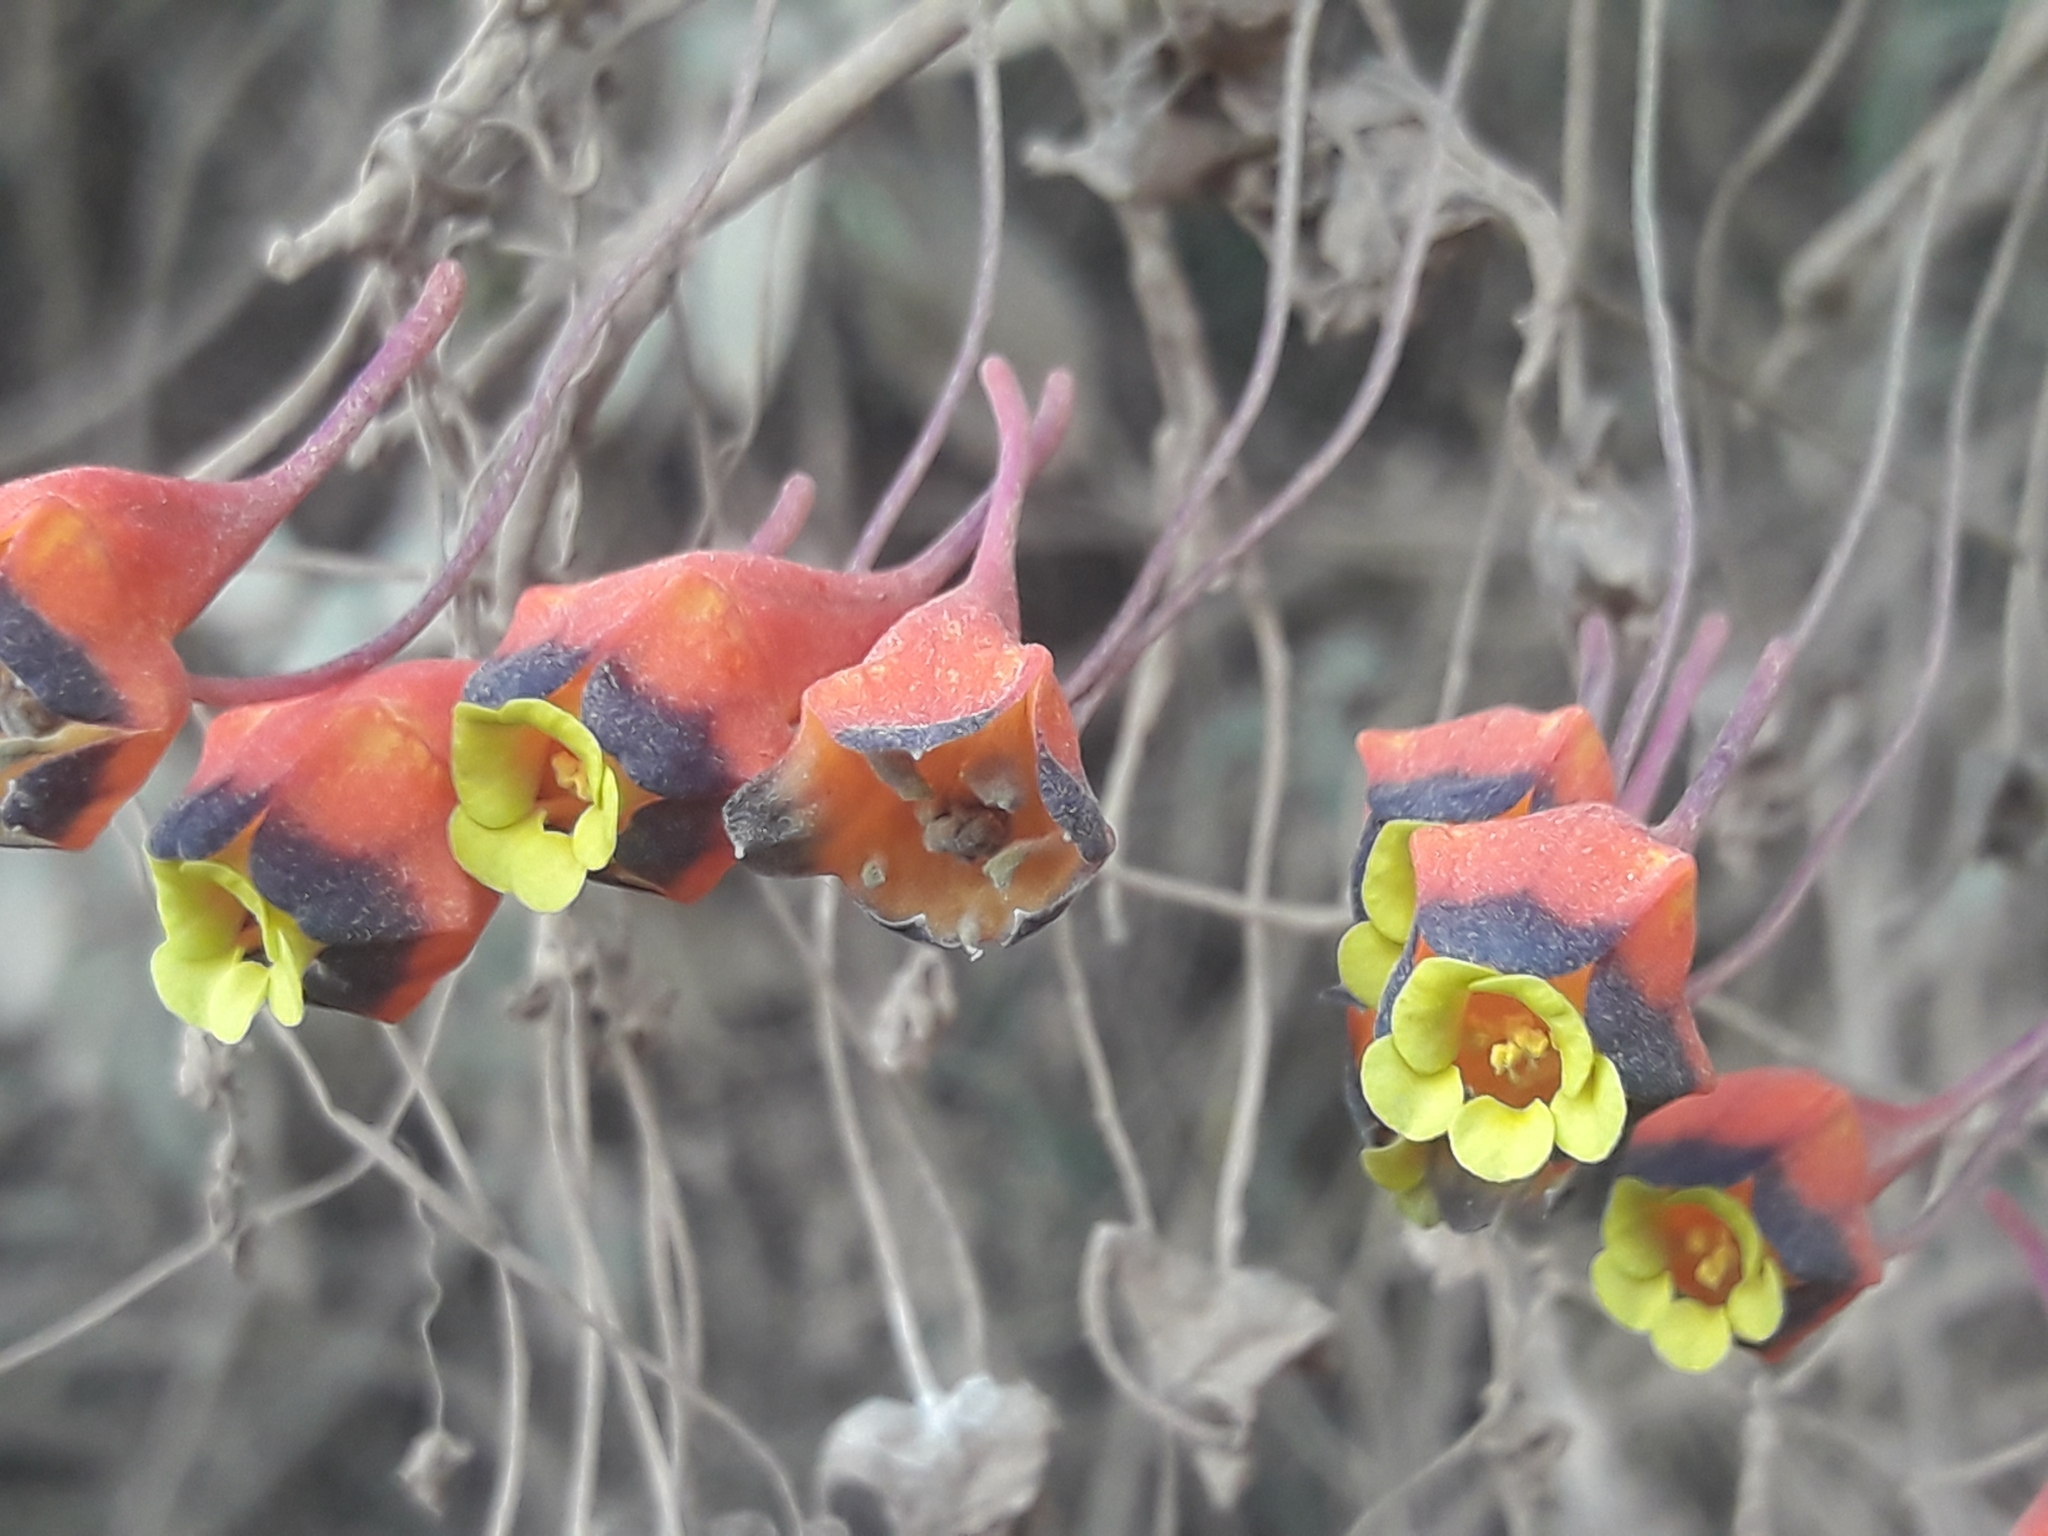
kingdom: Plantae
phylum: Tracheophyta
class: Magnoliopsida
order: Brassicales
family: Tropaeolaceae
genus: Tropaeolum
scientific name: Tropaeolum tricolor
